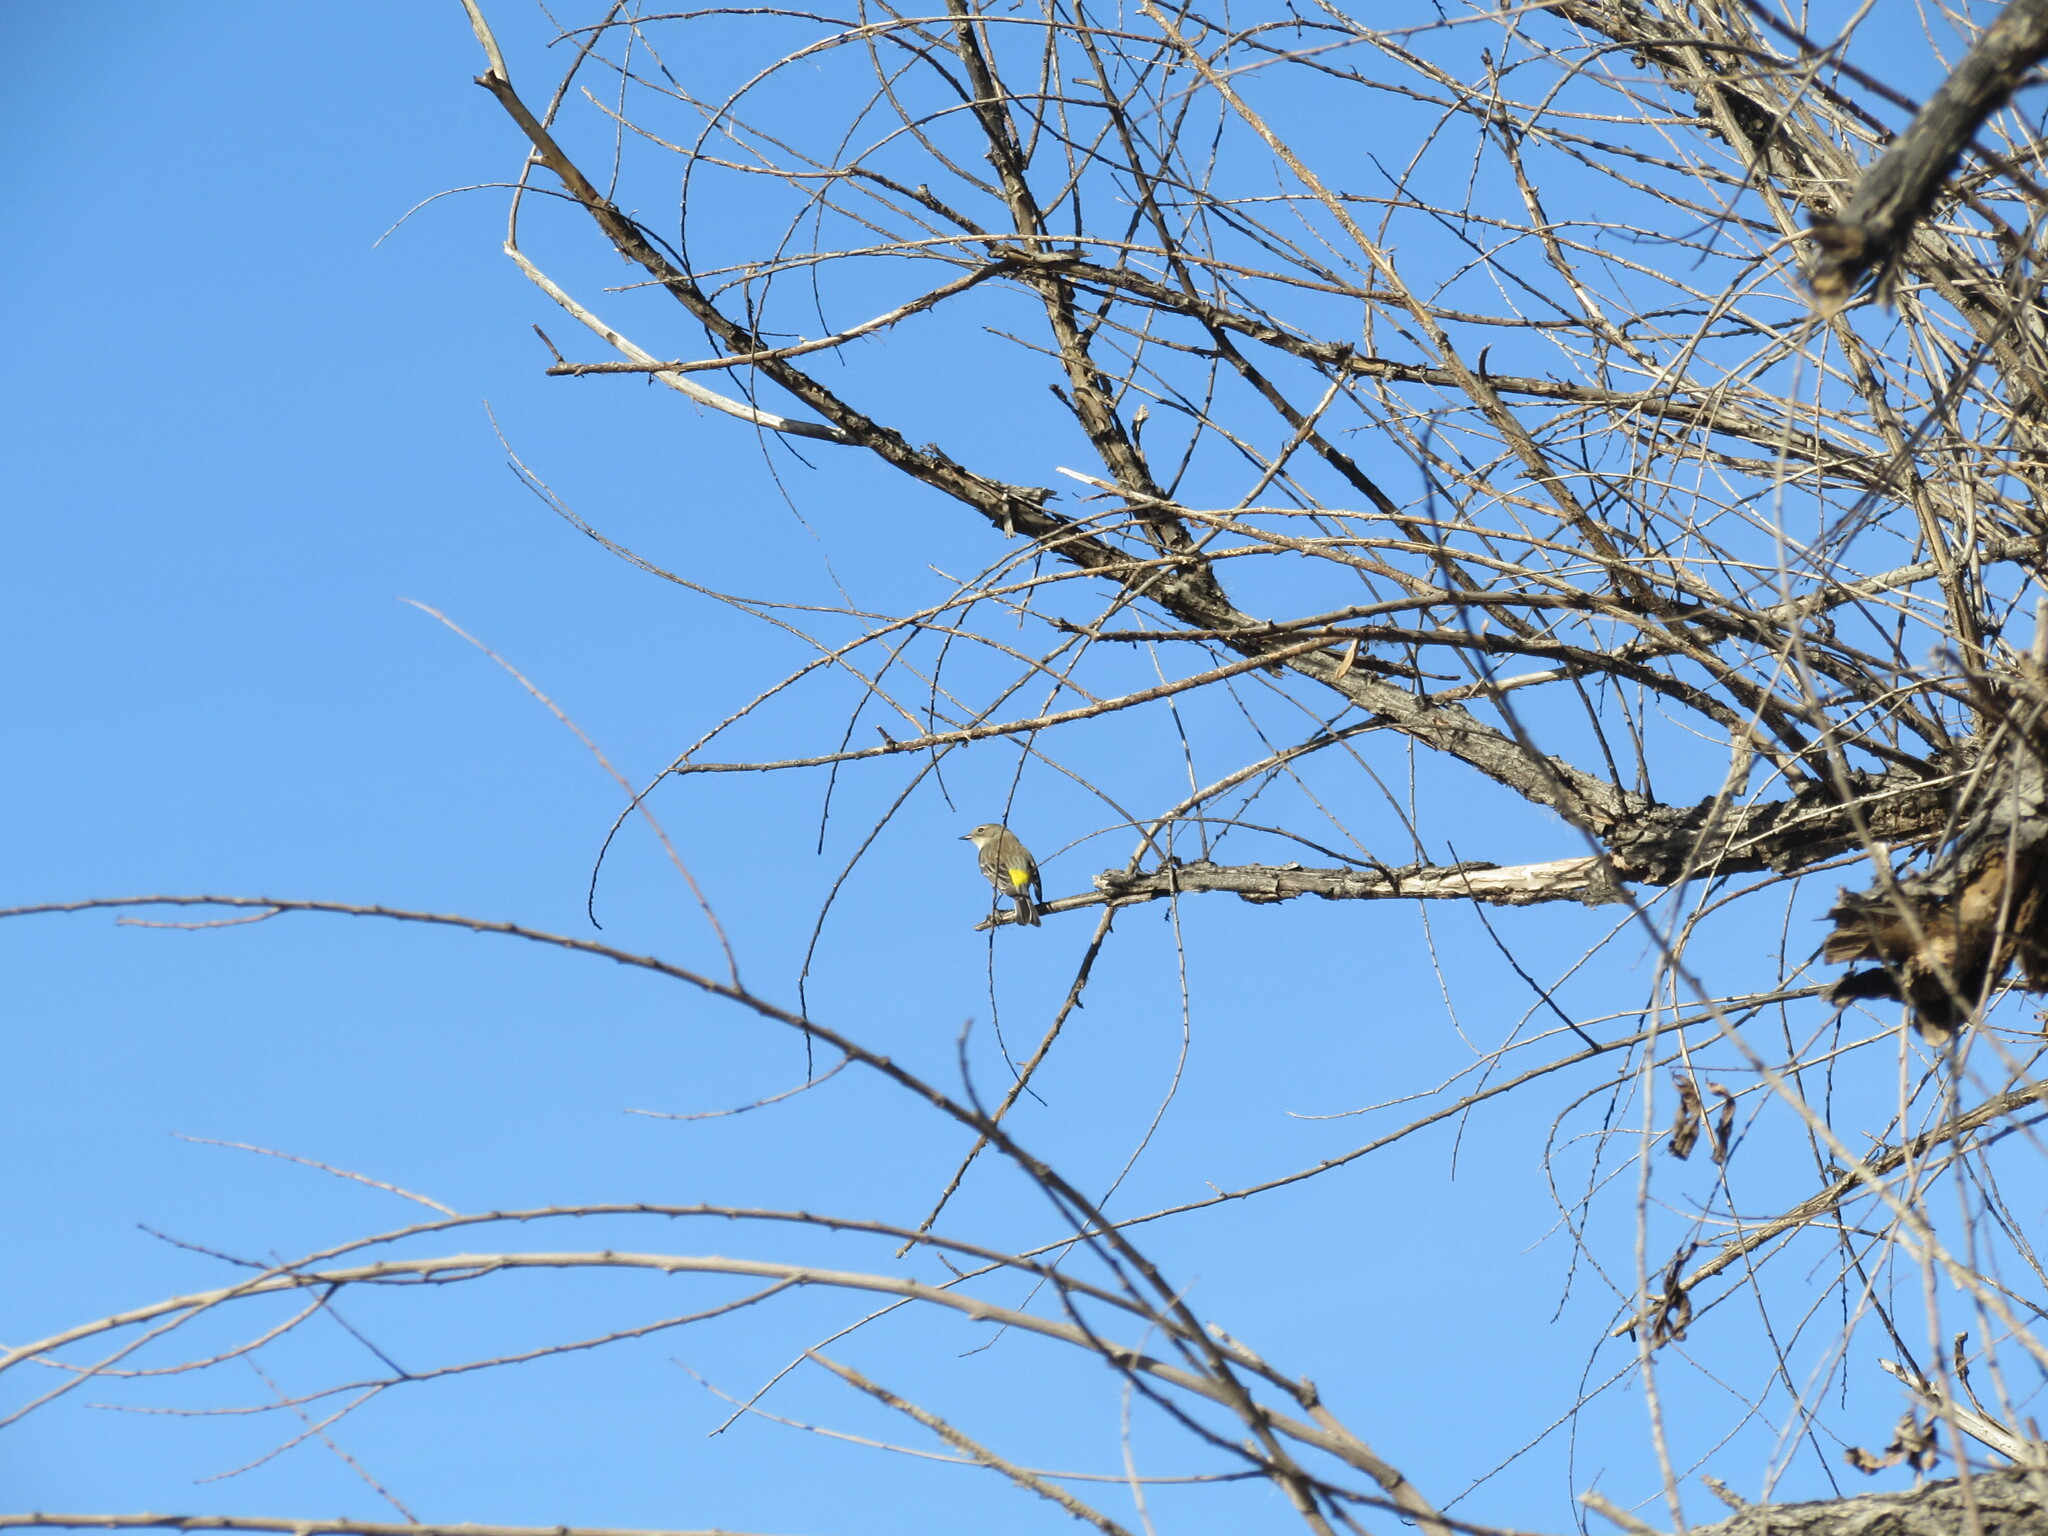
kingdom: Animalia
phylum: Chordata
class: Aves
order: Passeriformes
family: Parulidae
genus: Setophaga
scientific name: Setophaga coronata
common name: Myrtle warbler
